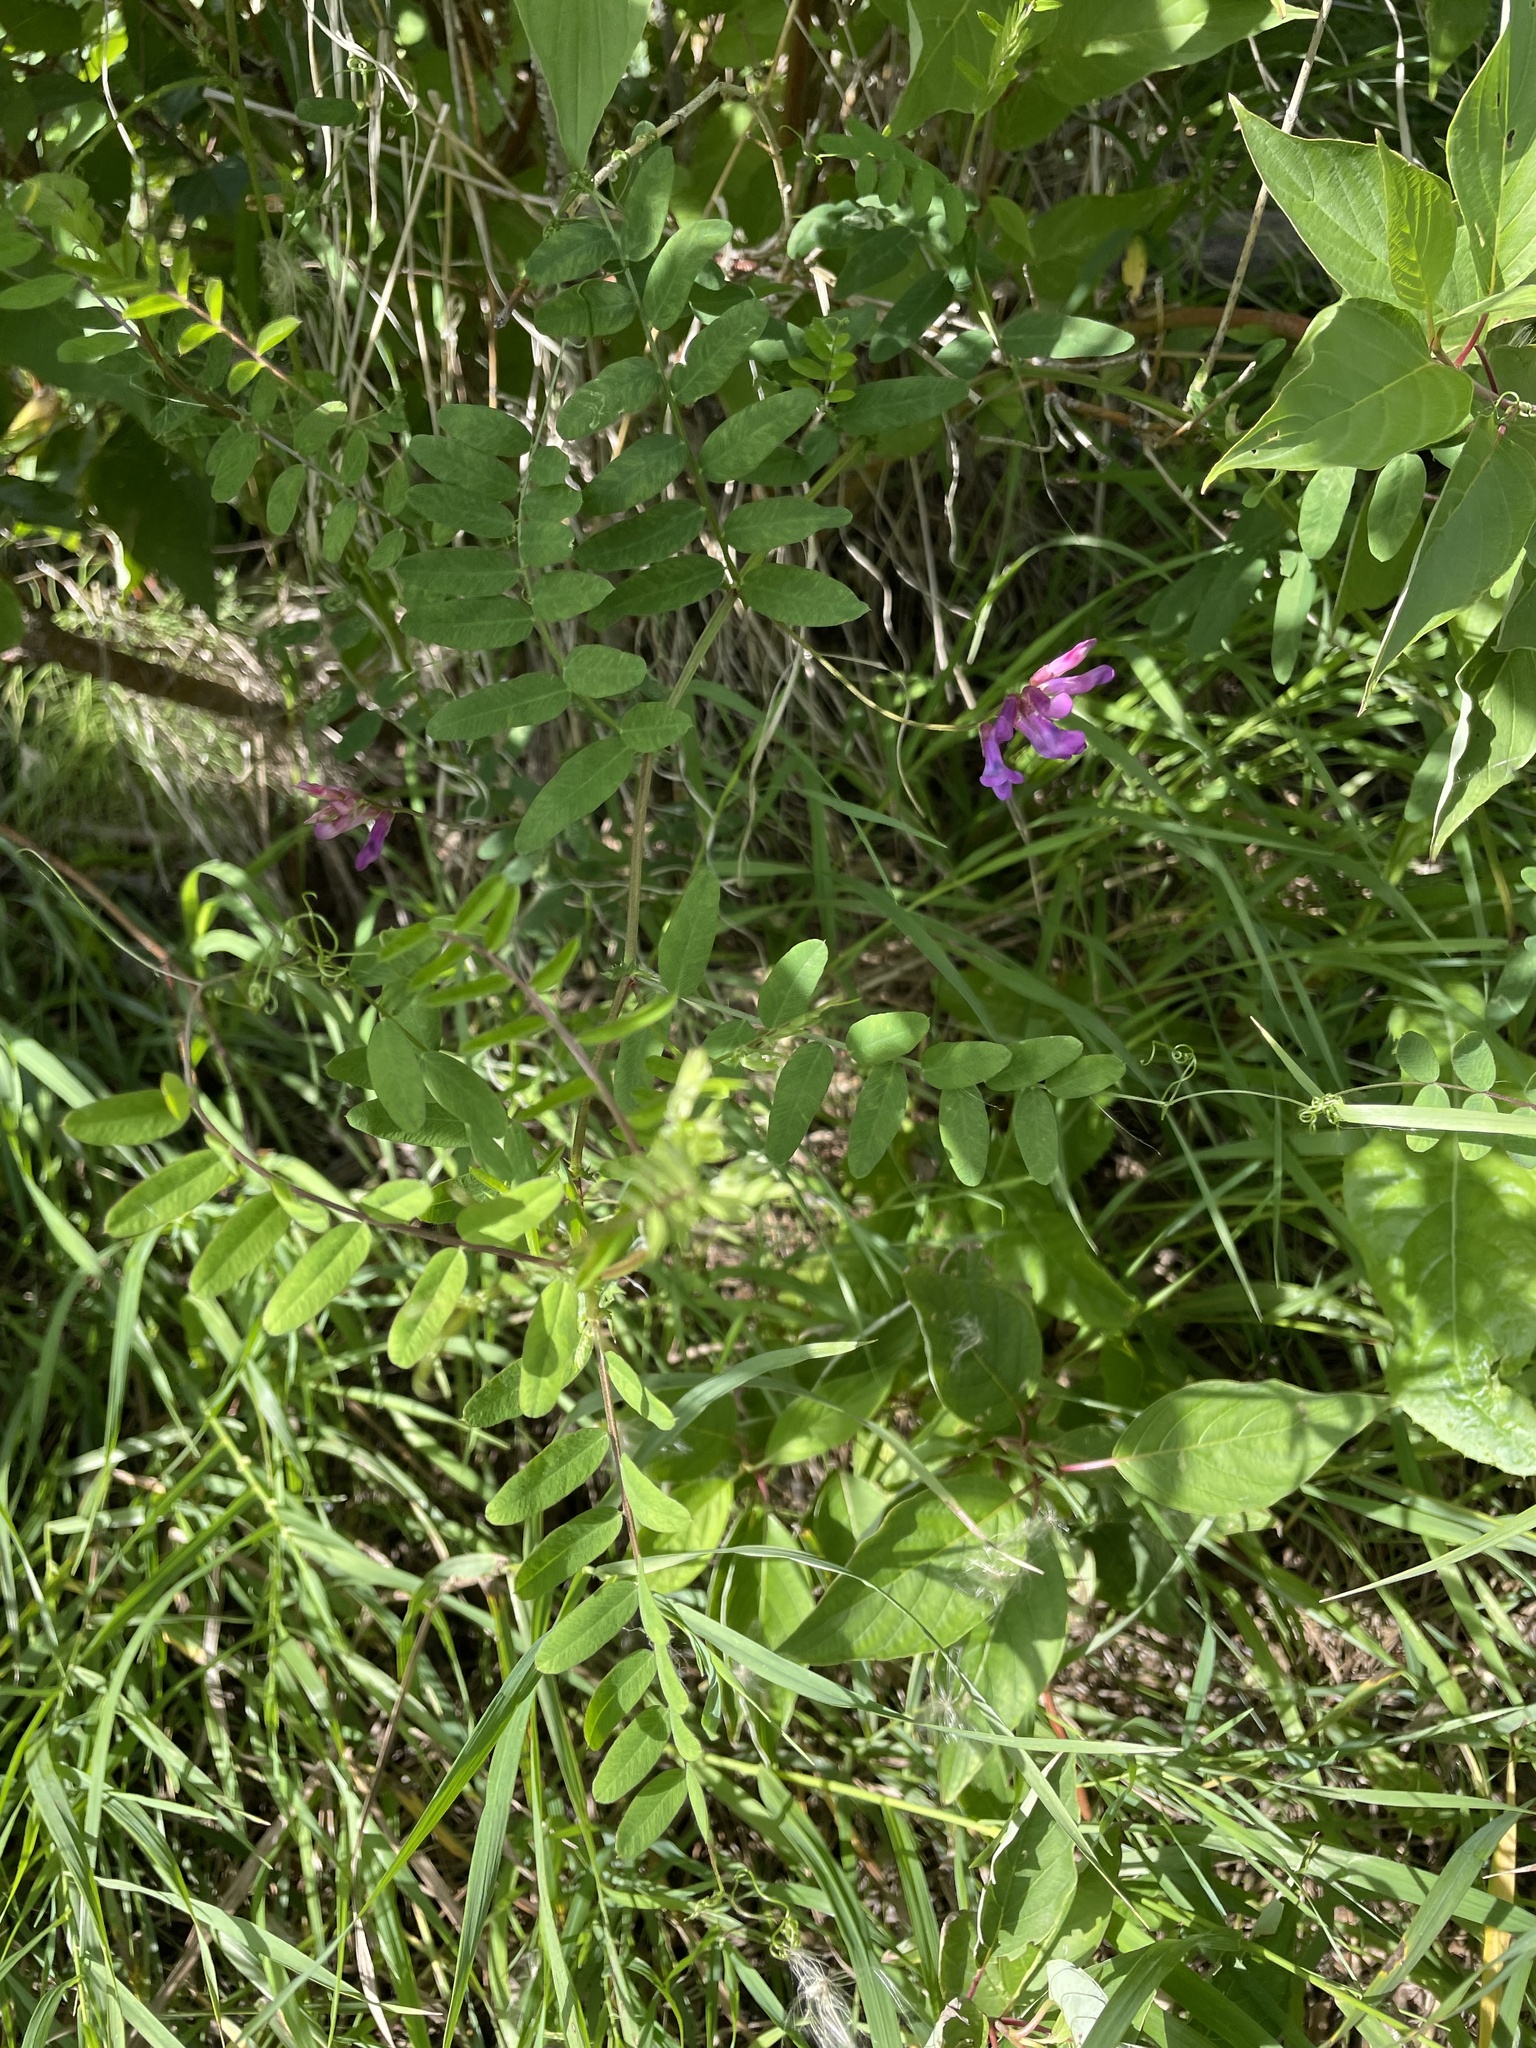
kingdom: Plantae
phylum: Tracheophyta
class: Magnoliopsida
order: Fabales
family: Fabaceae
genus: Vicia
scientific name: Vicia americana
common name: American vetch
